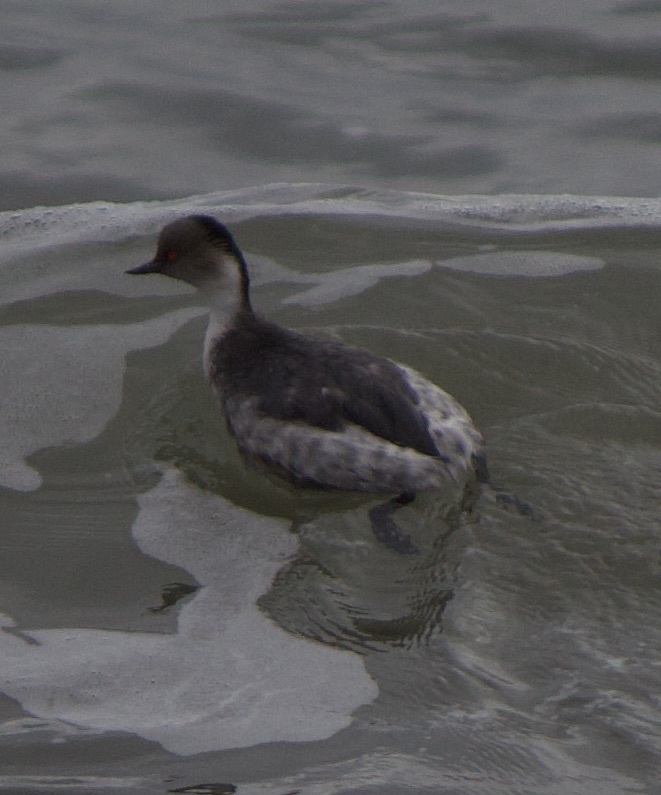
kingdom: Animalia
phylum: Chordata
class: Aves
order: Podicipediformes
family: Podicipedidae
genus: Podiceps
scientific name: Podiceps occipitalis
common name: Silvery grebe
